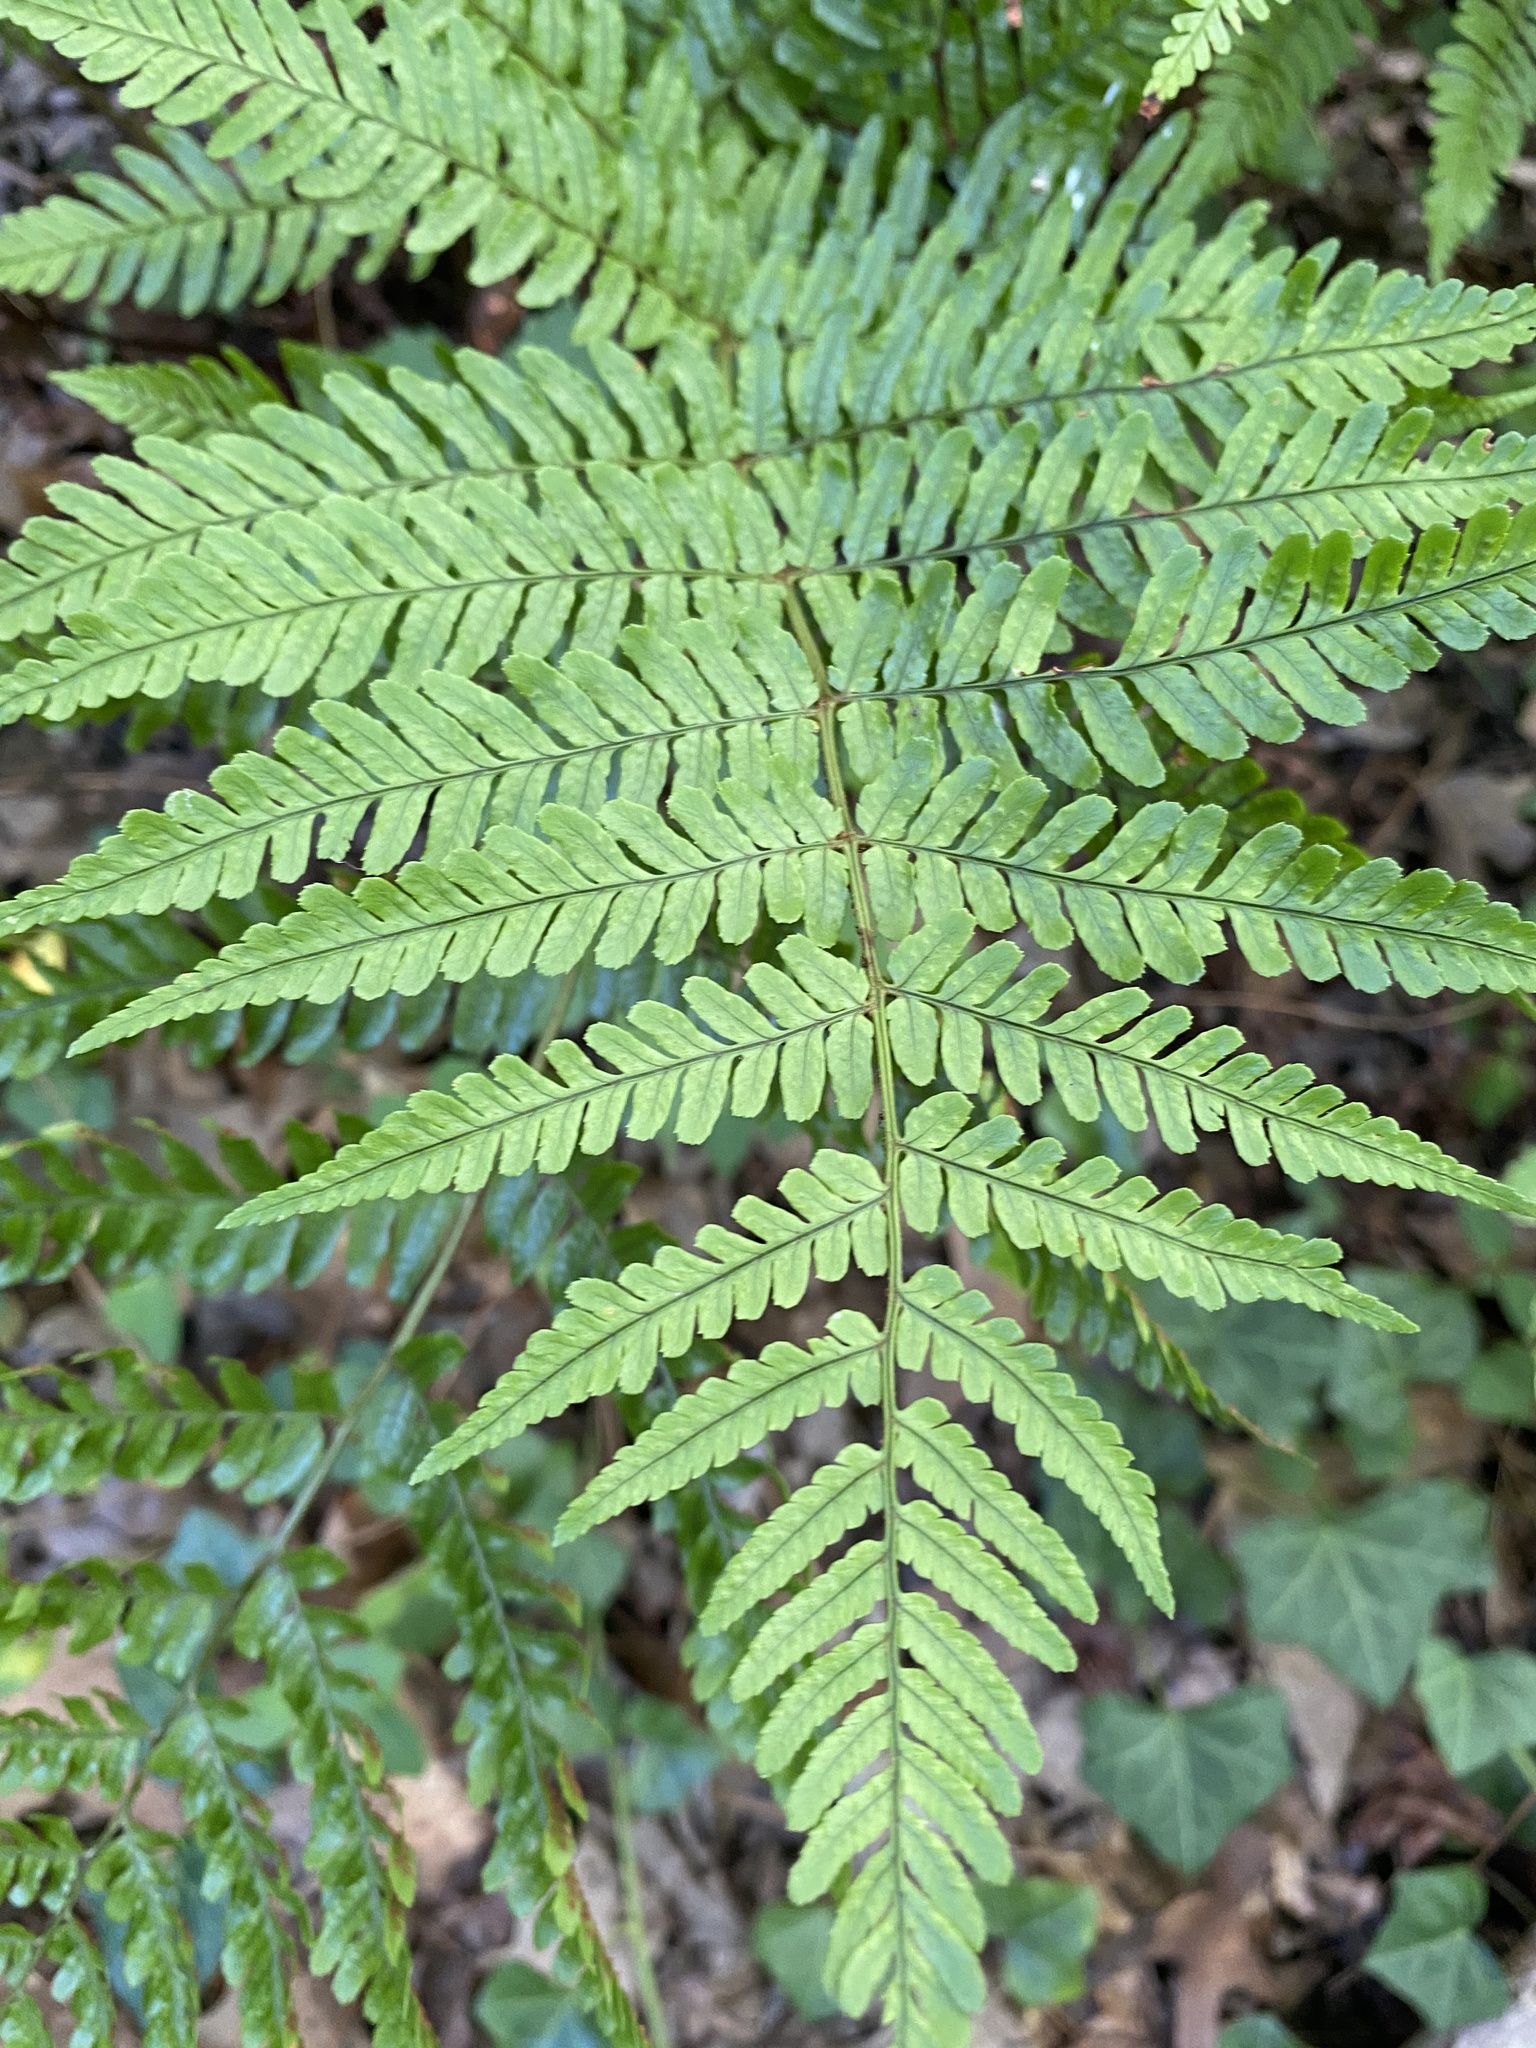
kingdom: Plantae
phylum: Tracheophyta
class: Polypodiopsida
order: Polypodiales
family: Dryopteridaceae
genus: Dryopteris
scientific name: Dryopteris erythrosora
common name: Autumn fern
